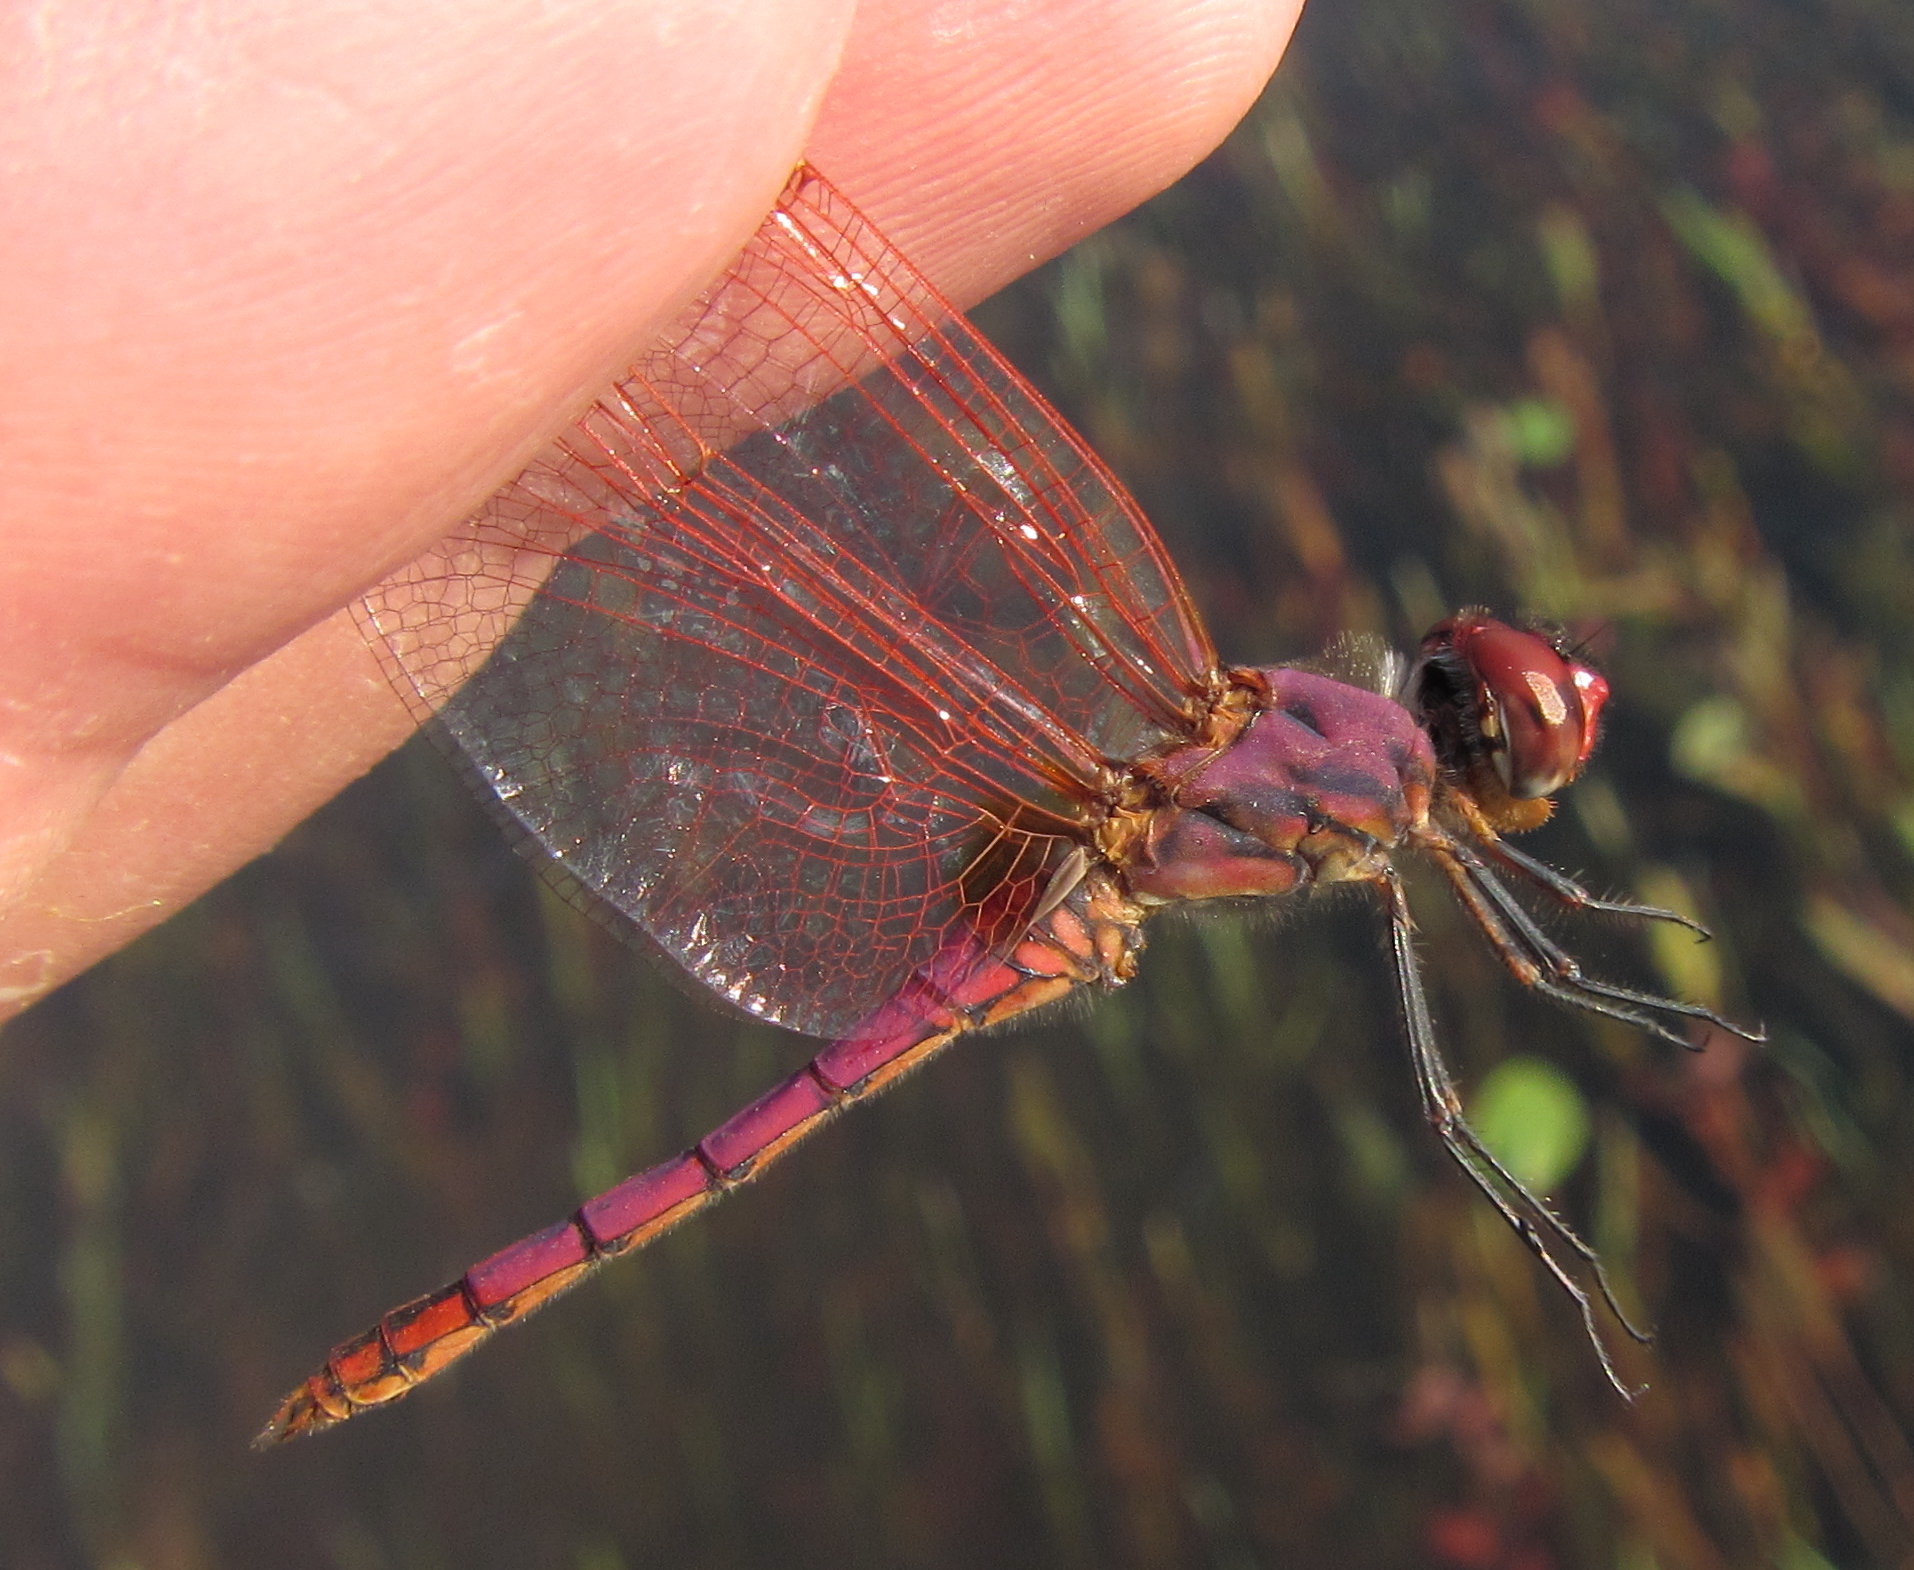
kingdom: Animalia
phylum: Arthropoda
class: Insecta
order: Odonata
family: Libellulidae
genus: Trithemis
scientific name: Trithemis annulata
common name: Violet dropwing
